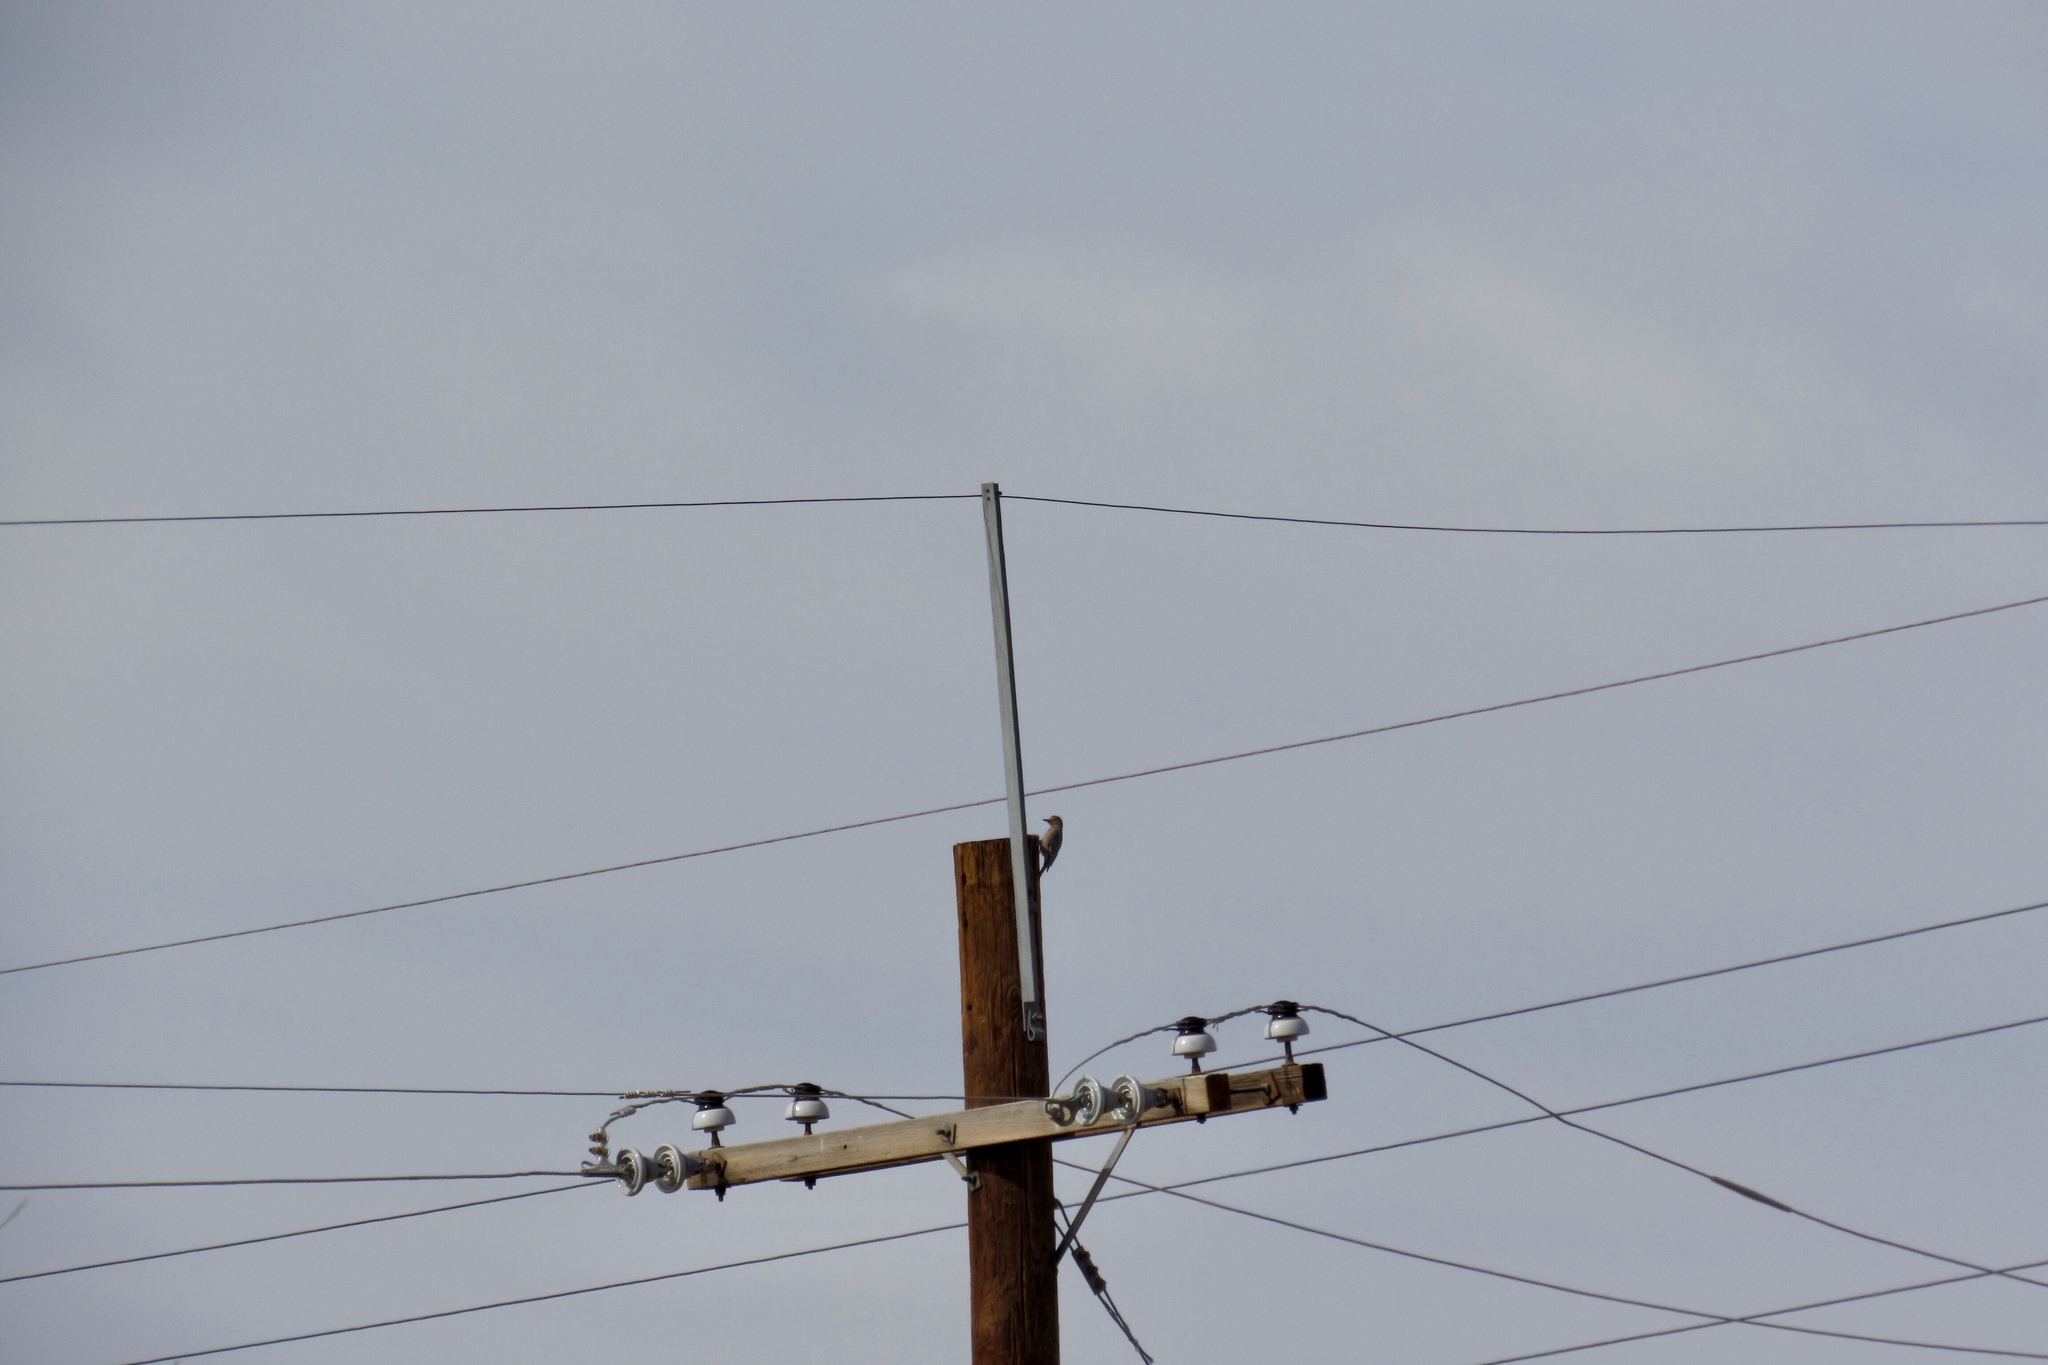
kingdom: Animalia
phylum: Chordata
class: Aves
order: Piciformes
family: Picidae
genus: Melanerpes
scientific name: Melanerpes uropygialis
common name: Gila woodpecker
